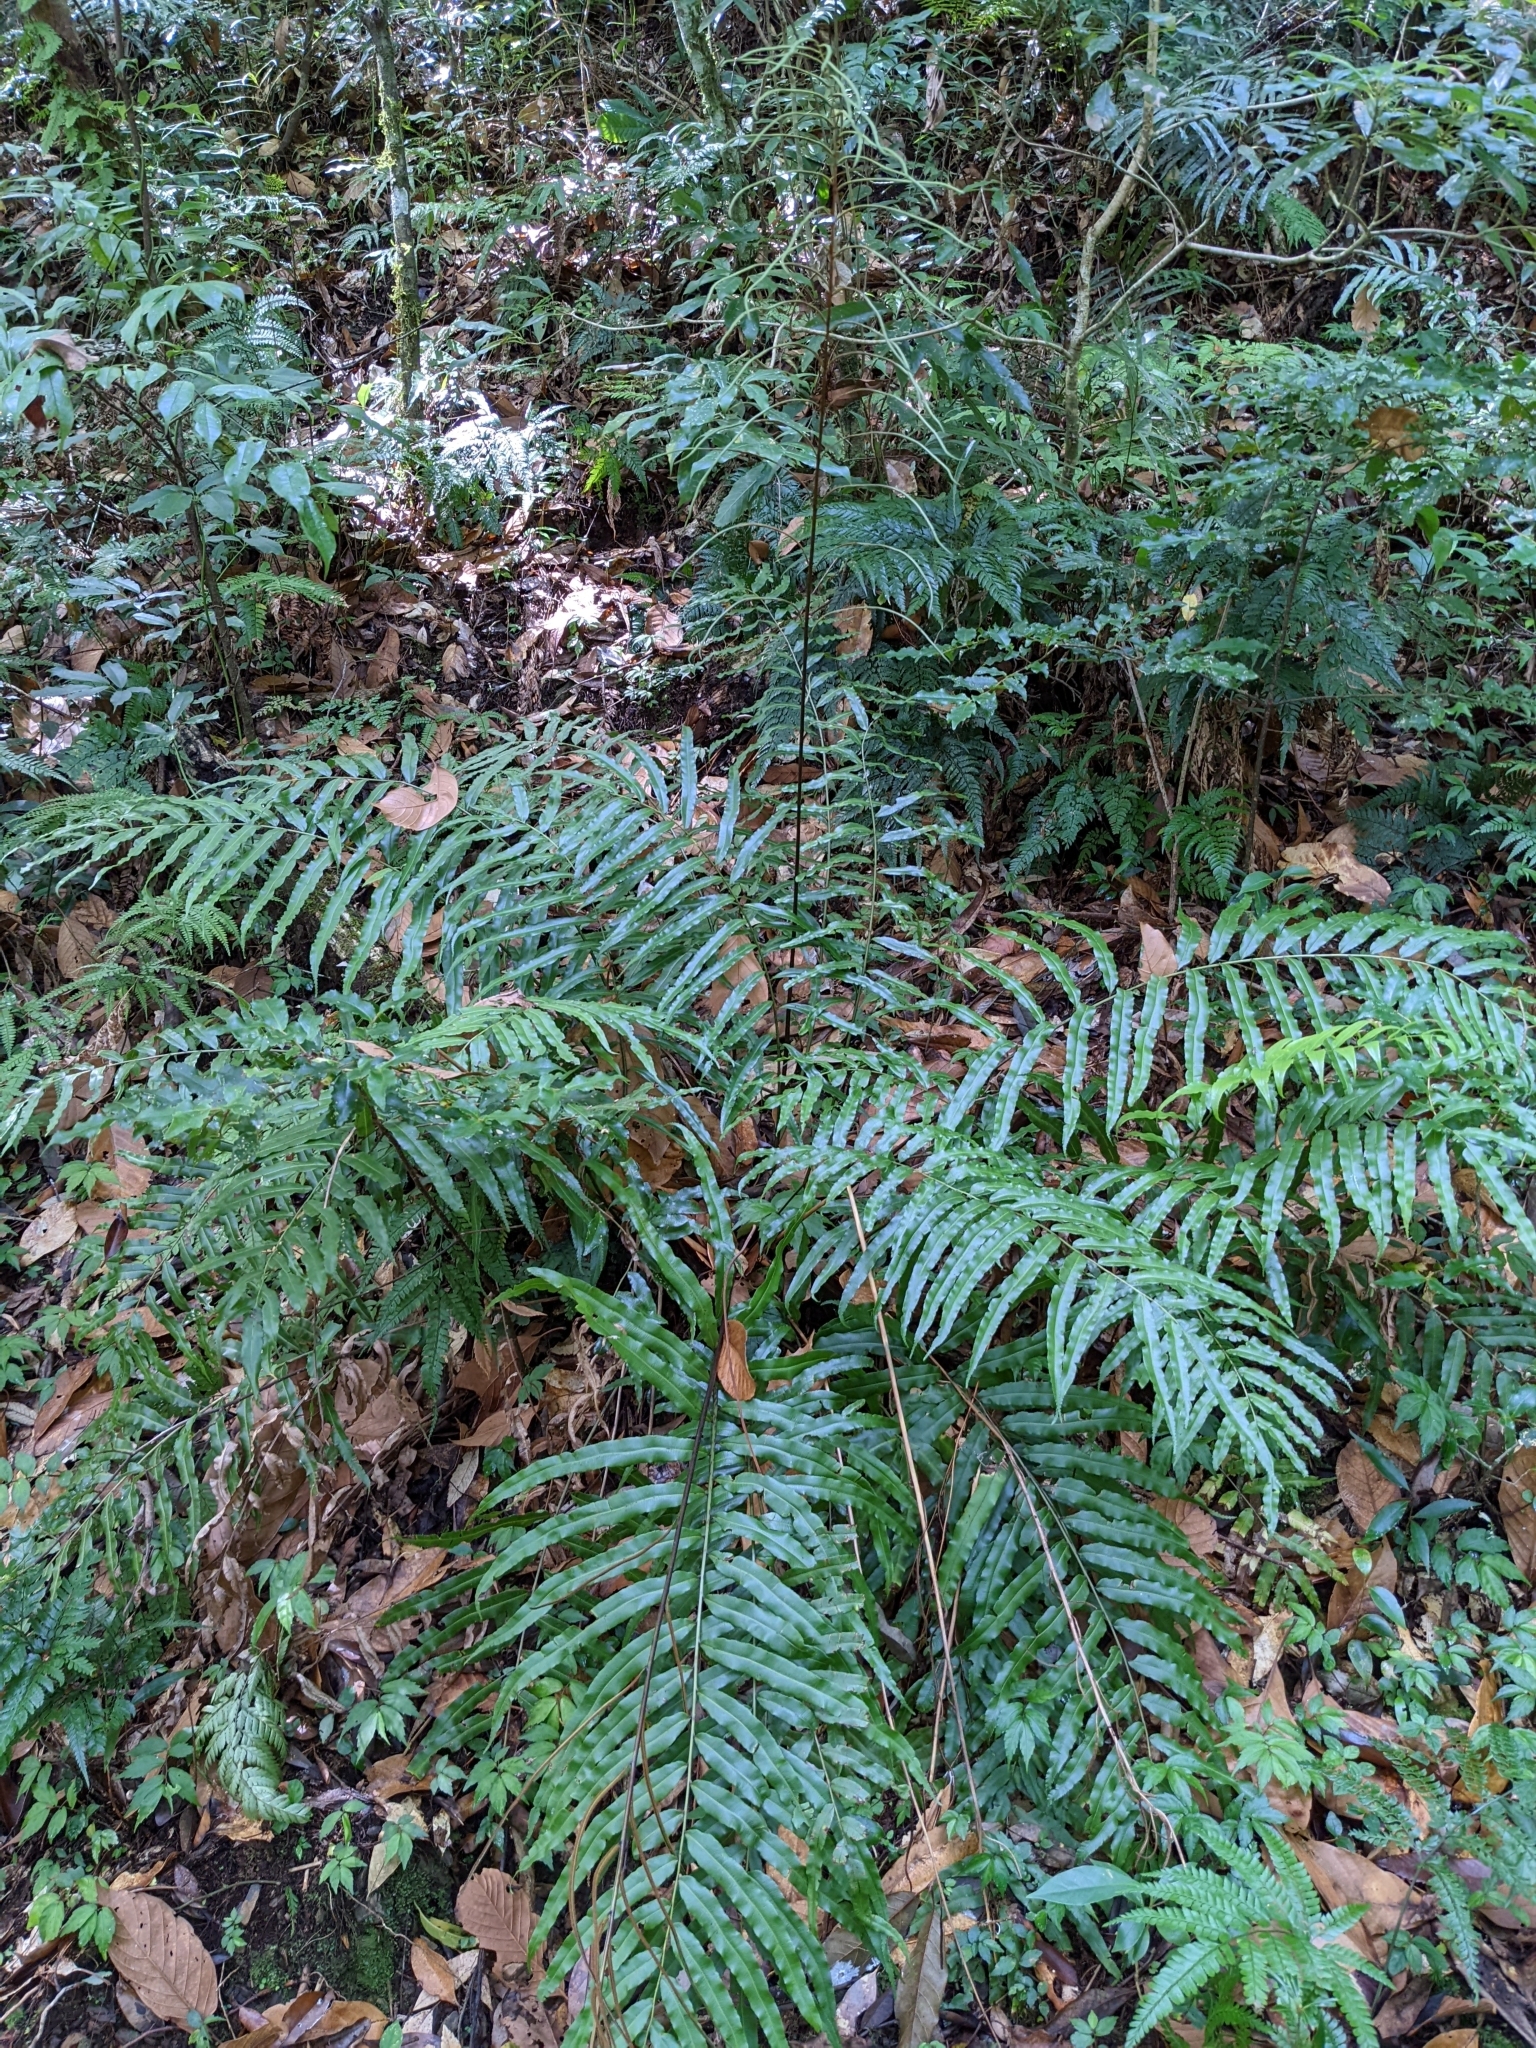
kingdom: Plantae
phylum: Tracheophyta
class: Polypodiopsida
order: Cyatheales
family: Plagiogyriaceae
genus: Plagiogyria
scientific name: Plagiogyria euphlebia
